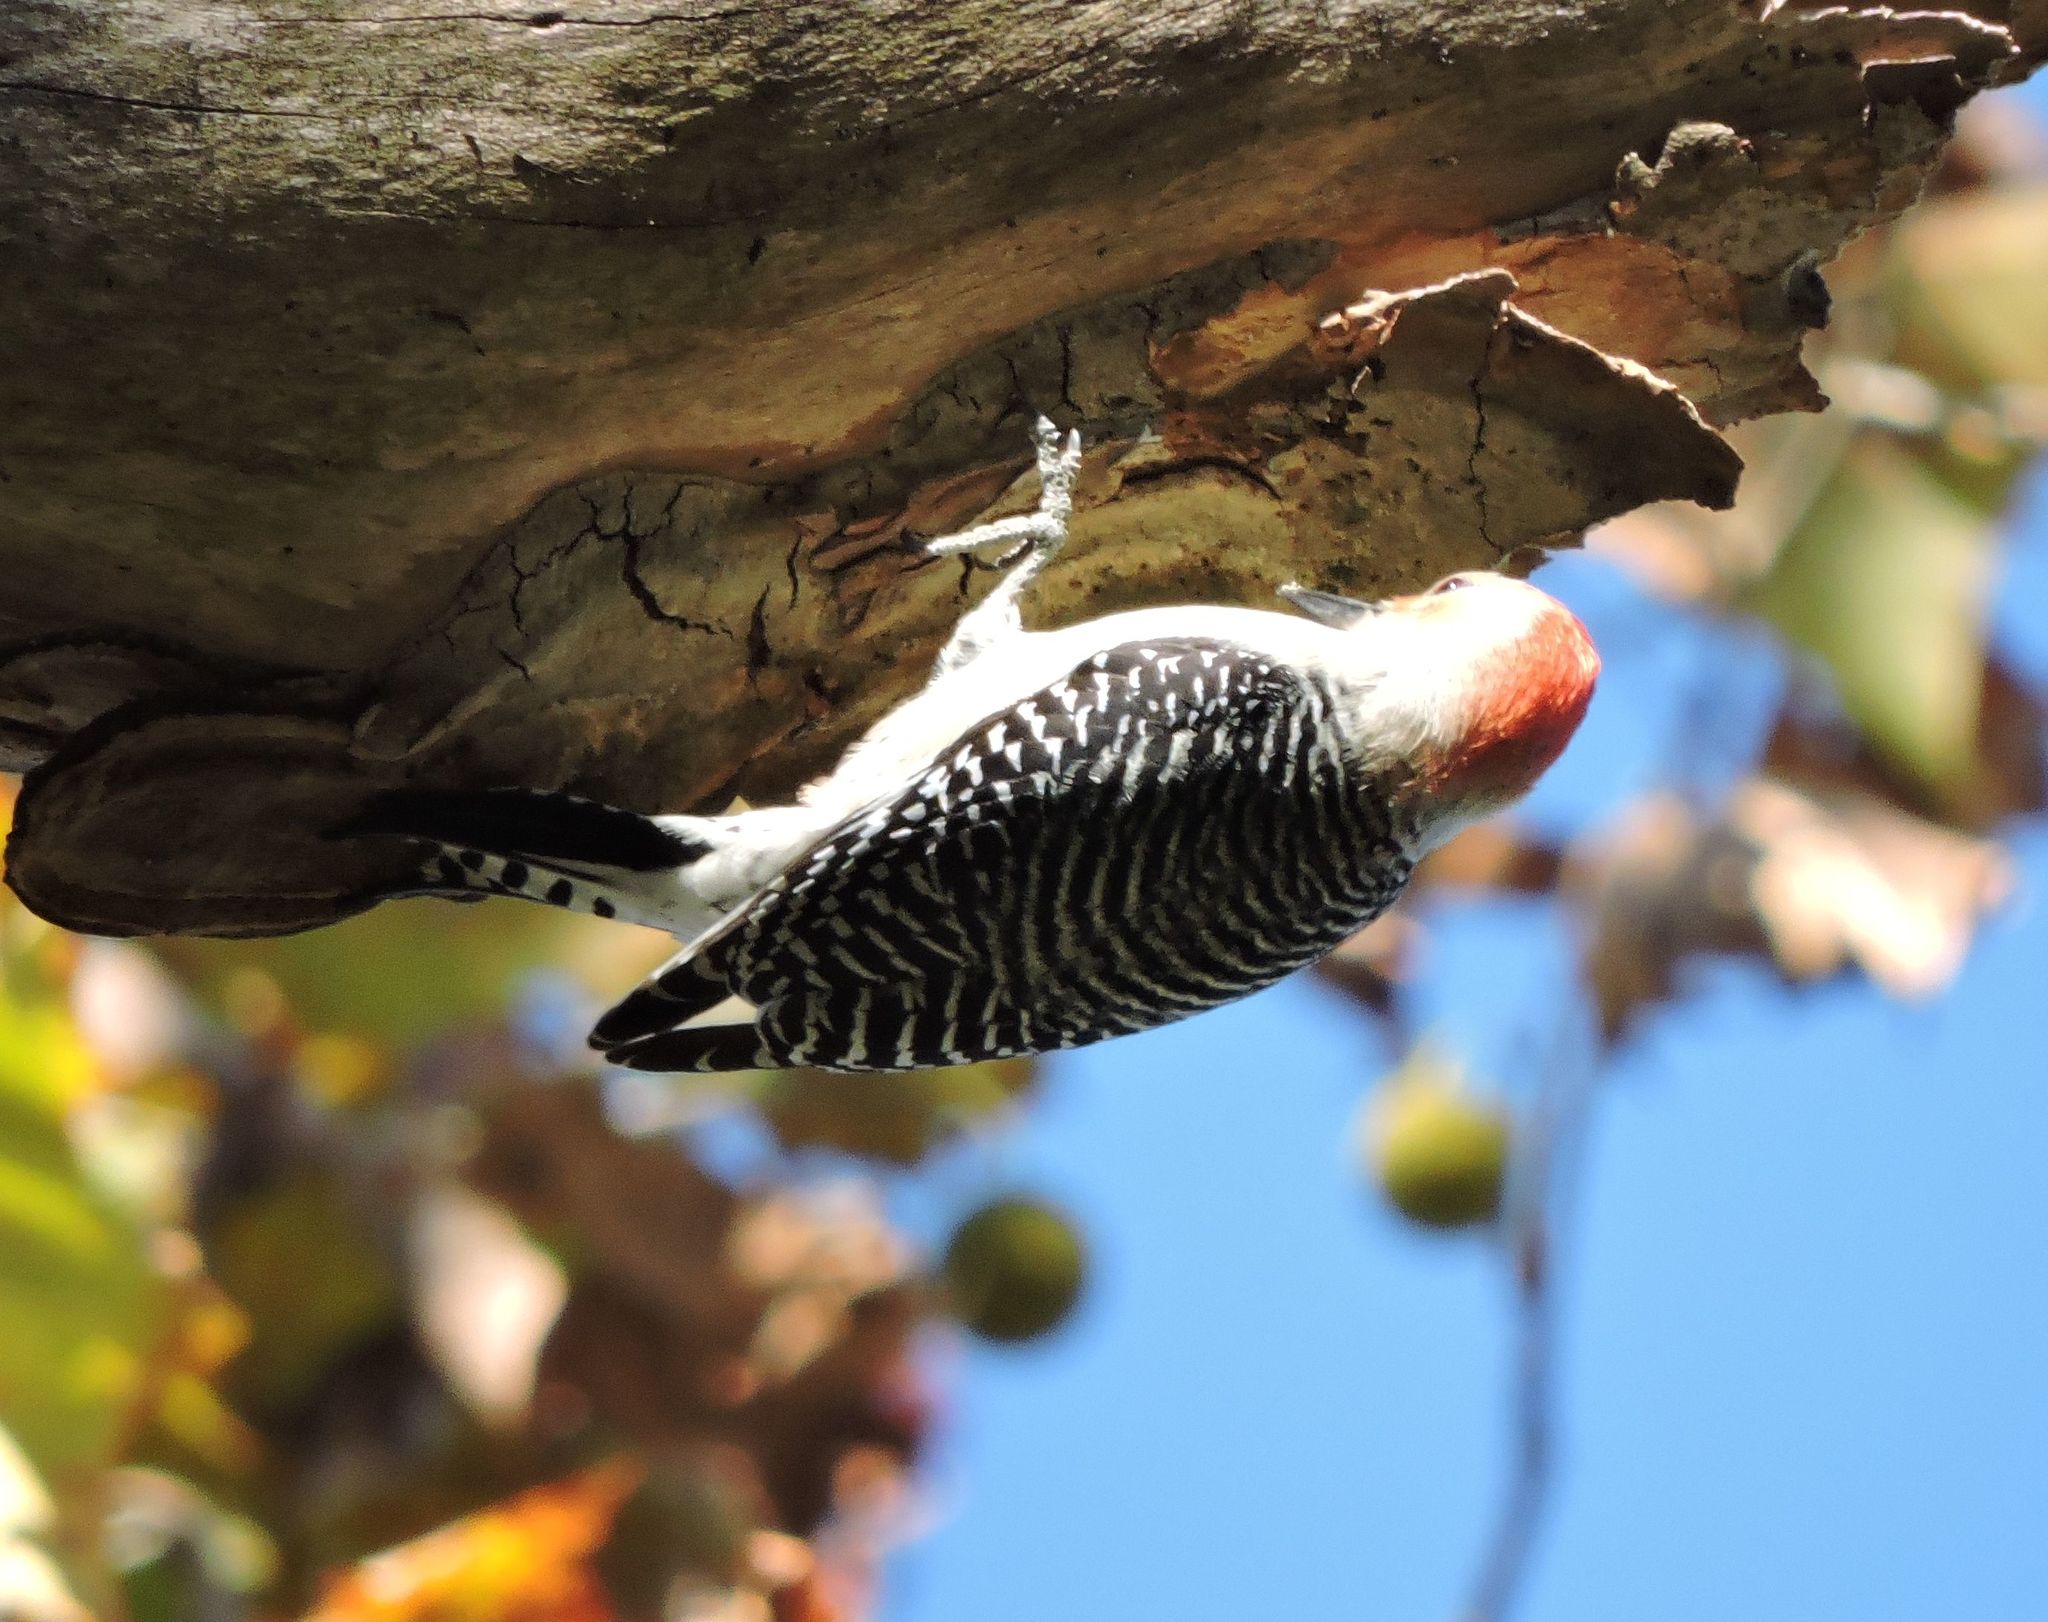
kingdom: Animalia
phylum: Chordata
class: Aves
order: Piciformes
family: Picidae
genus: Melanerpes
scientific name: Melanerpes carolinus
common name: Red-bellied woodpecker
